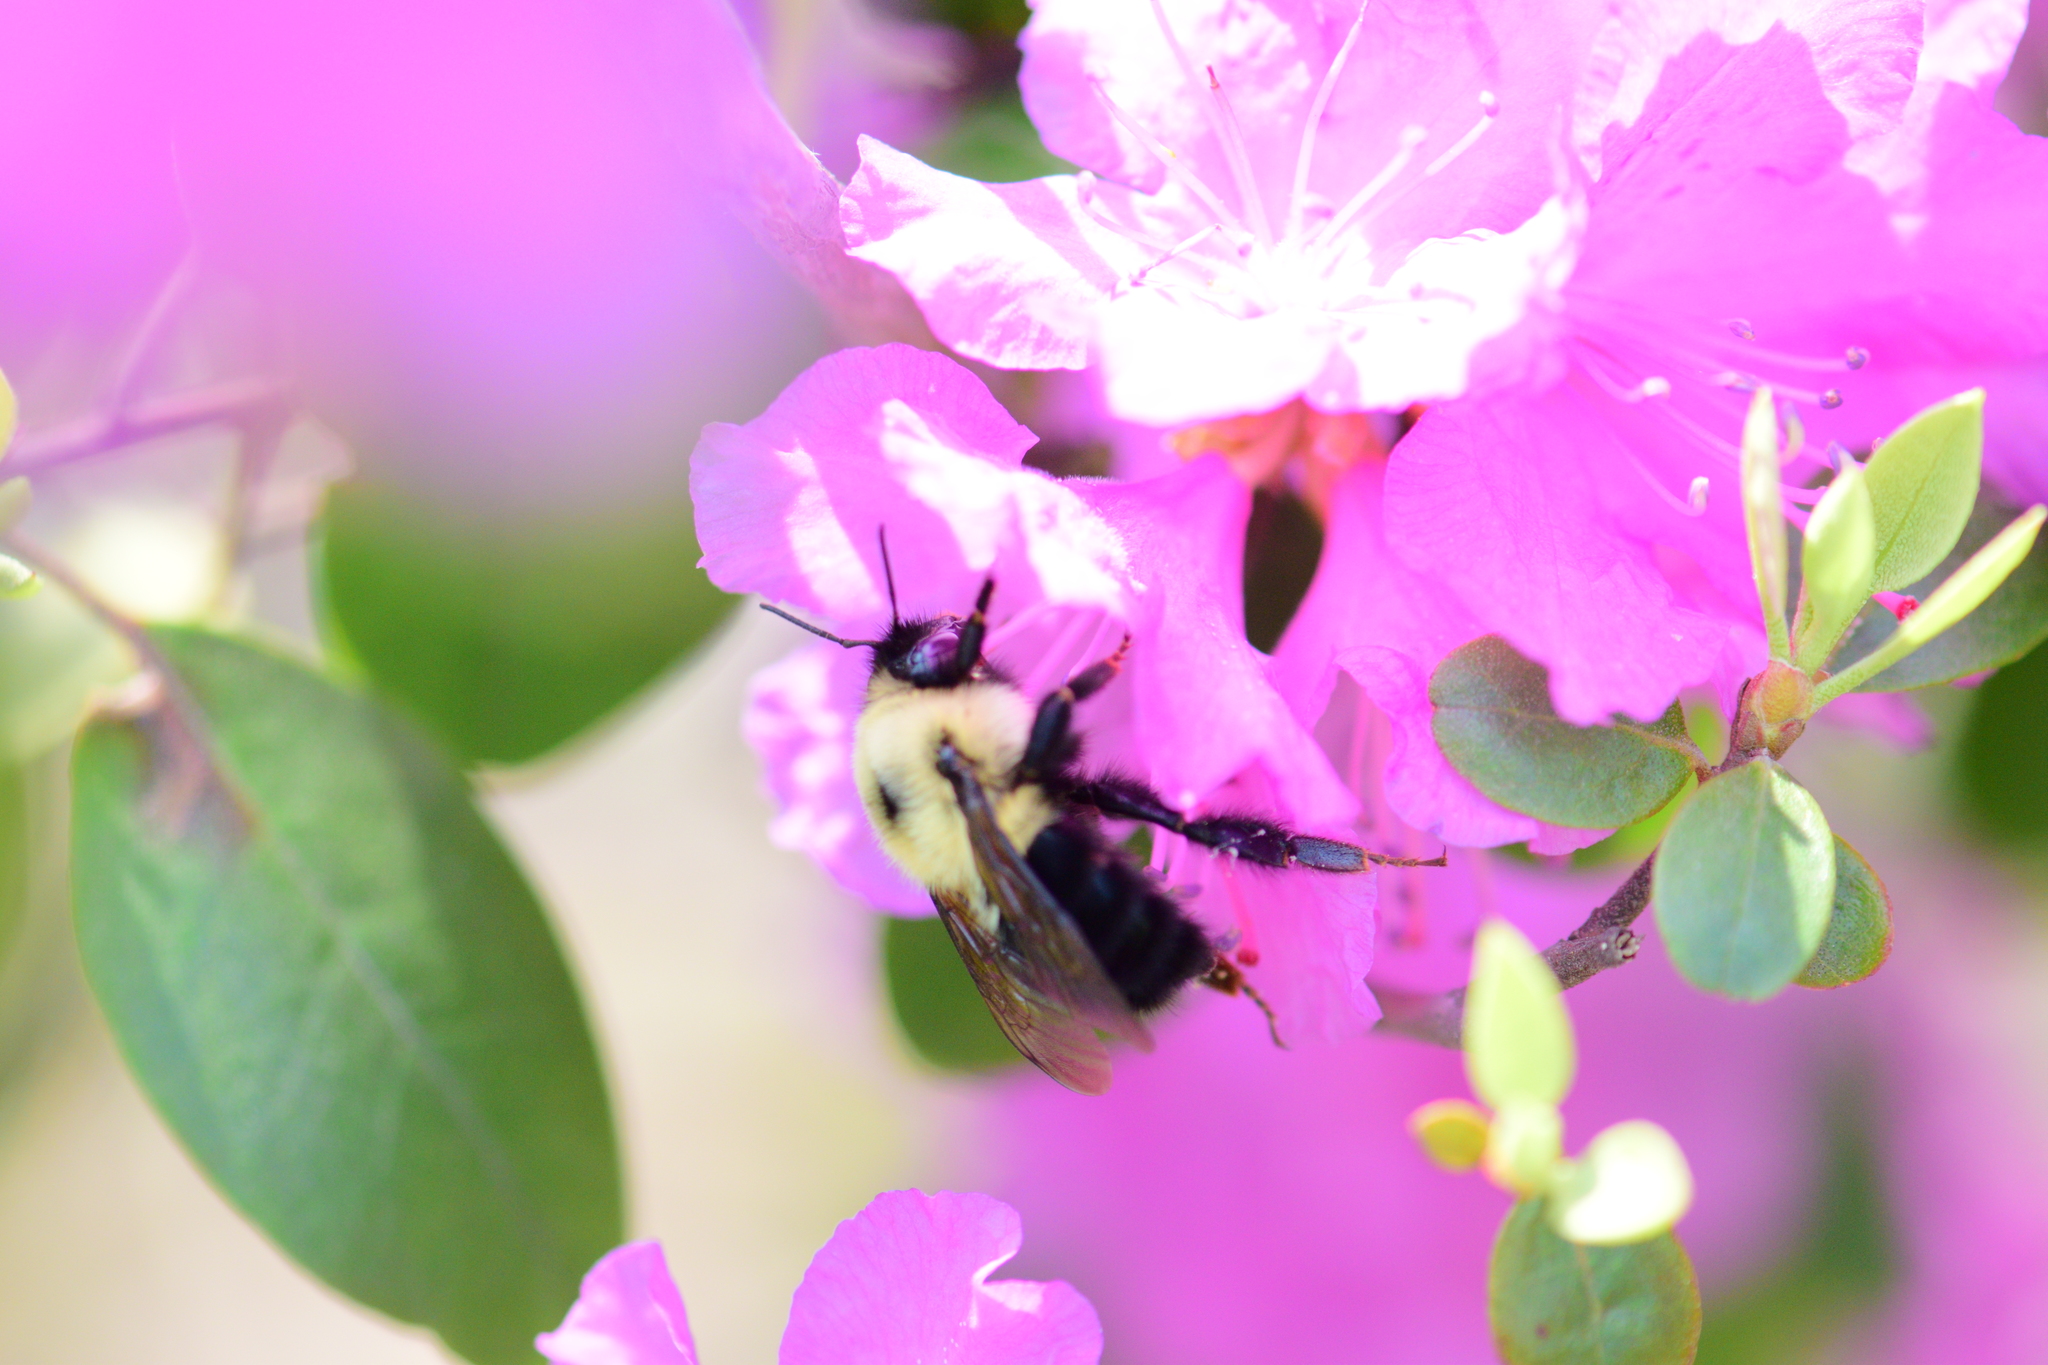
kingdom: Animalia
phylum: Arthropoda
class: Insecta
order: Hymenoptera
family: Apidae
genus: Bombus
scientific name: Bombus bimaculatus
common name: Two-spotted bumble bee
